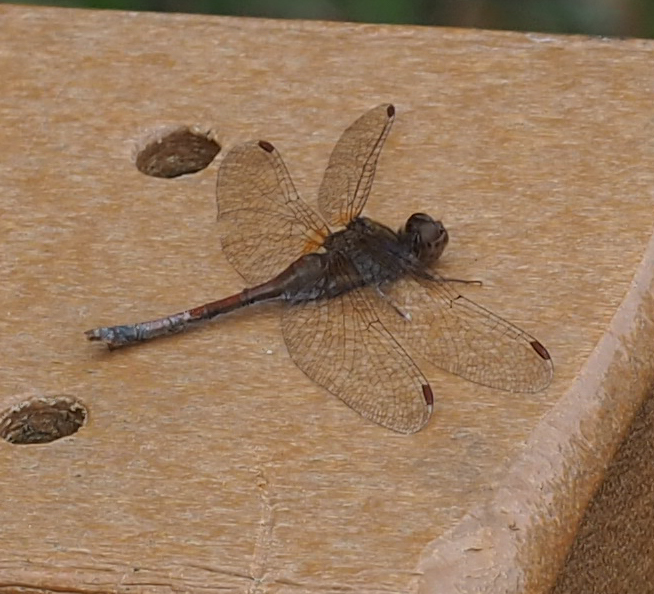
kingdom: Animalia
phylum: Arthropoda
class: Insecta
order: Odonata
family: Libellulidae
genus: Sympetrum
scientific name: Sympetrum vicinum
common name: Autumn meadowhawk
